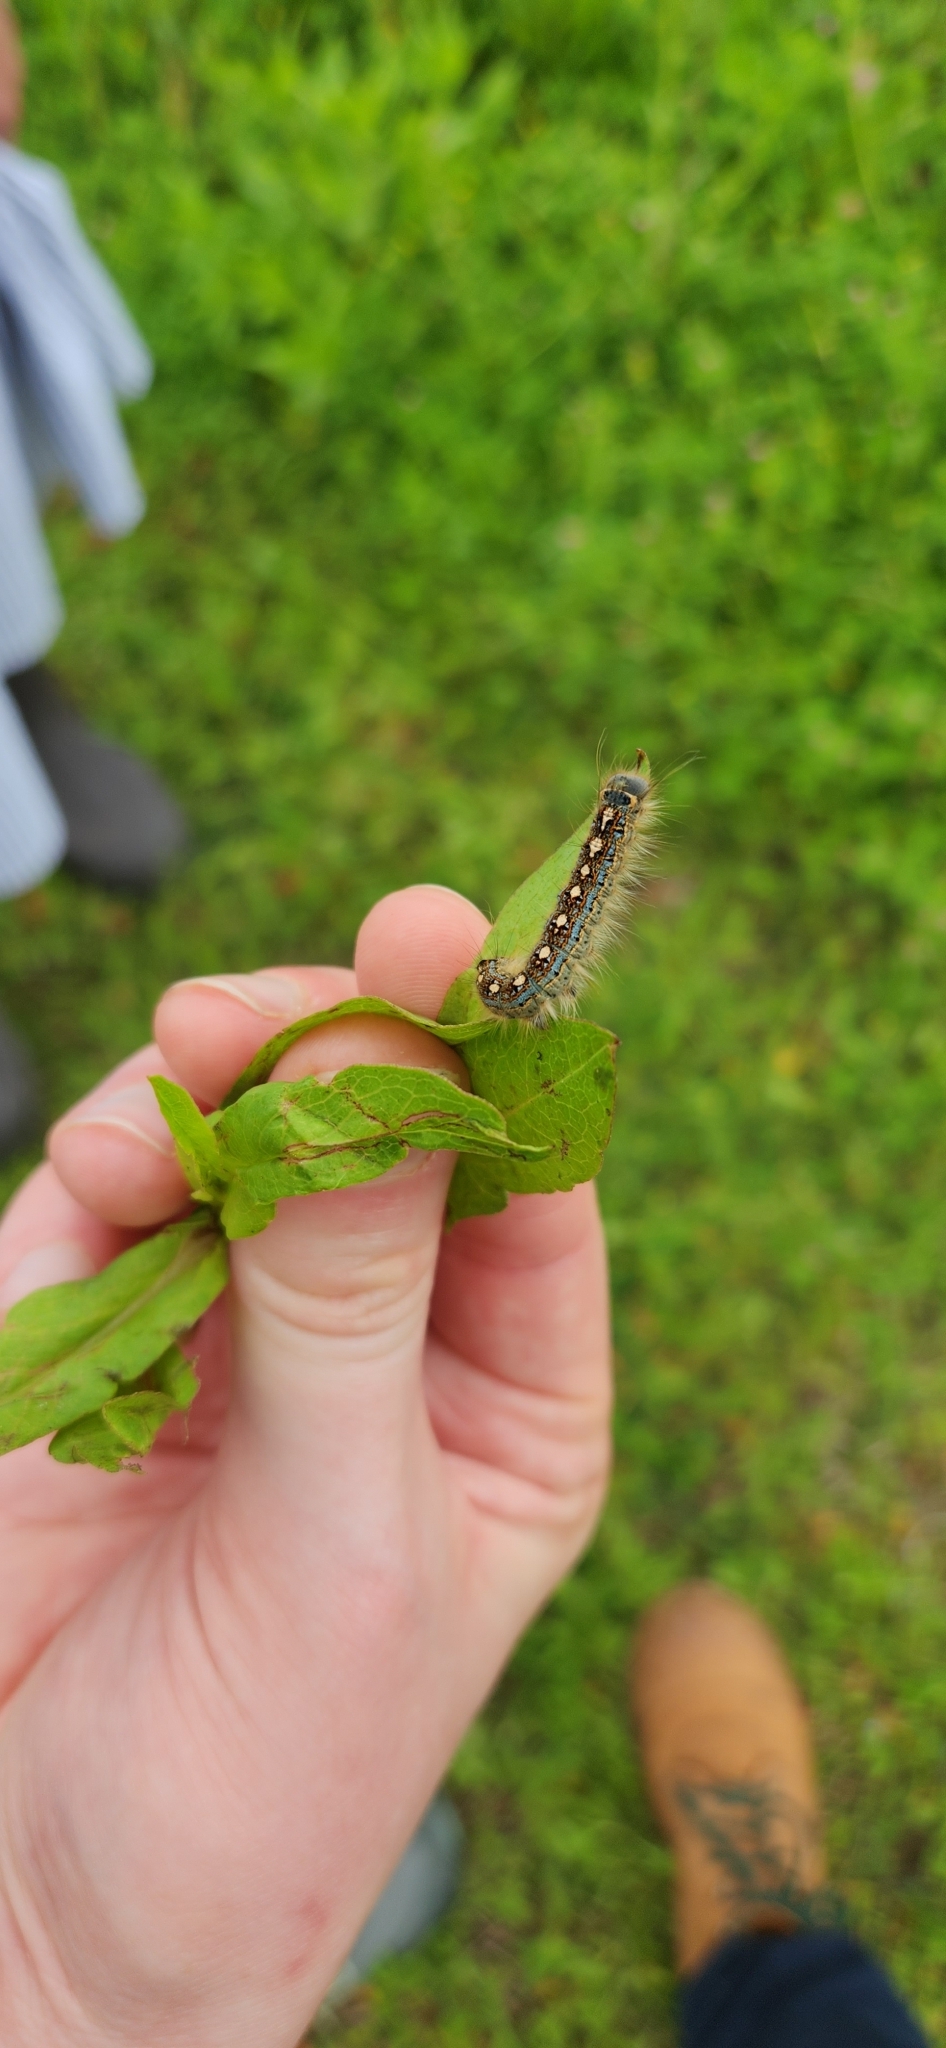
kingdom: Animalia
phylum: Arthropoda
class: Insecta
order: Lepidoptera
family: Lasiocampidae
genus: Malacosoma
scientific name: Malacosoma disstria
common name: Forest tent caterpillar
